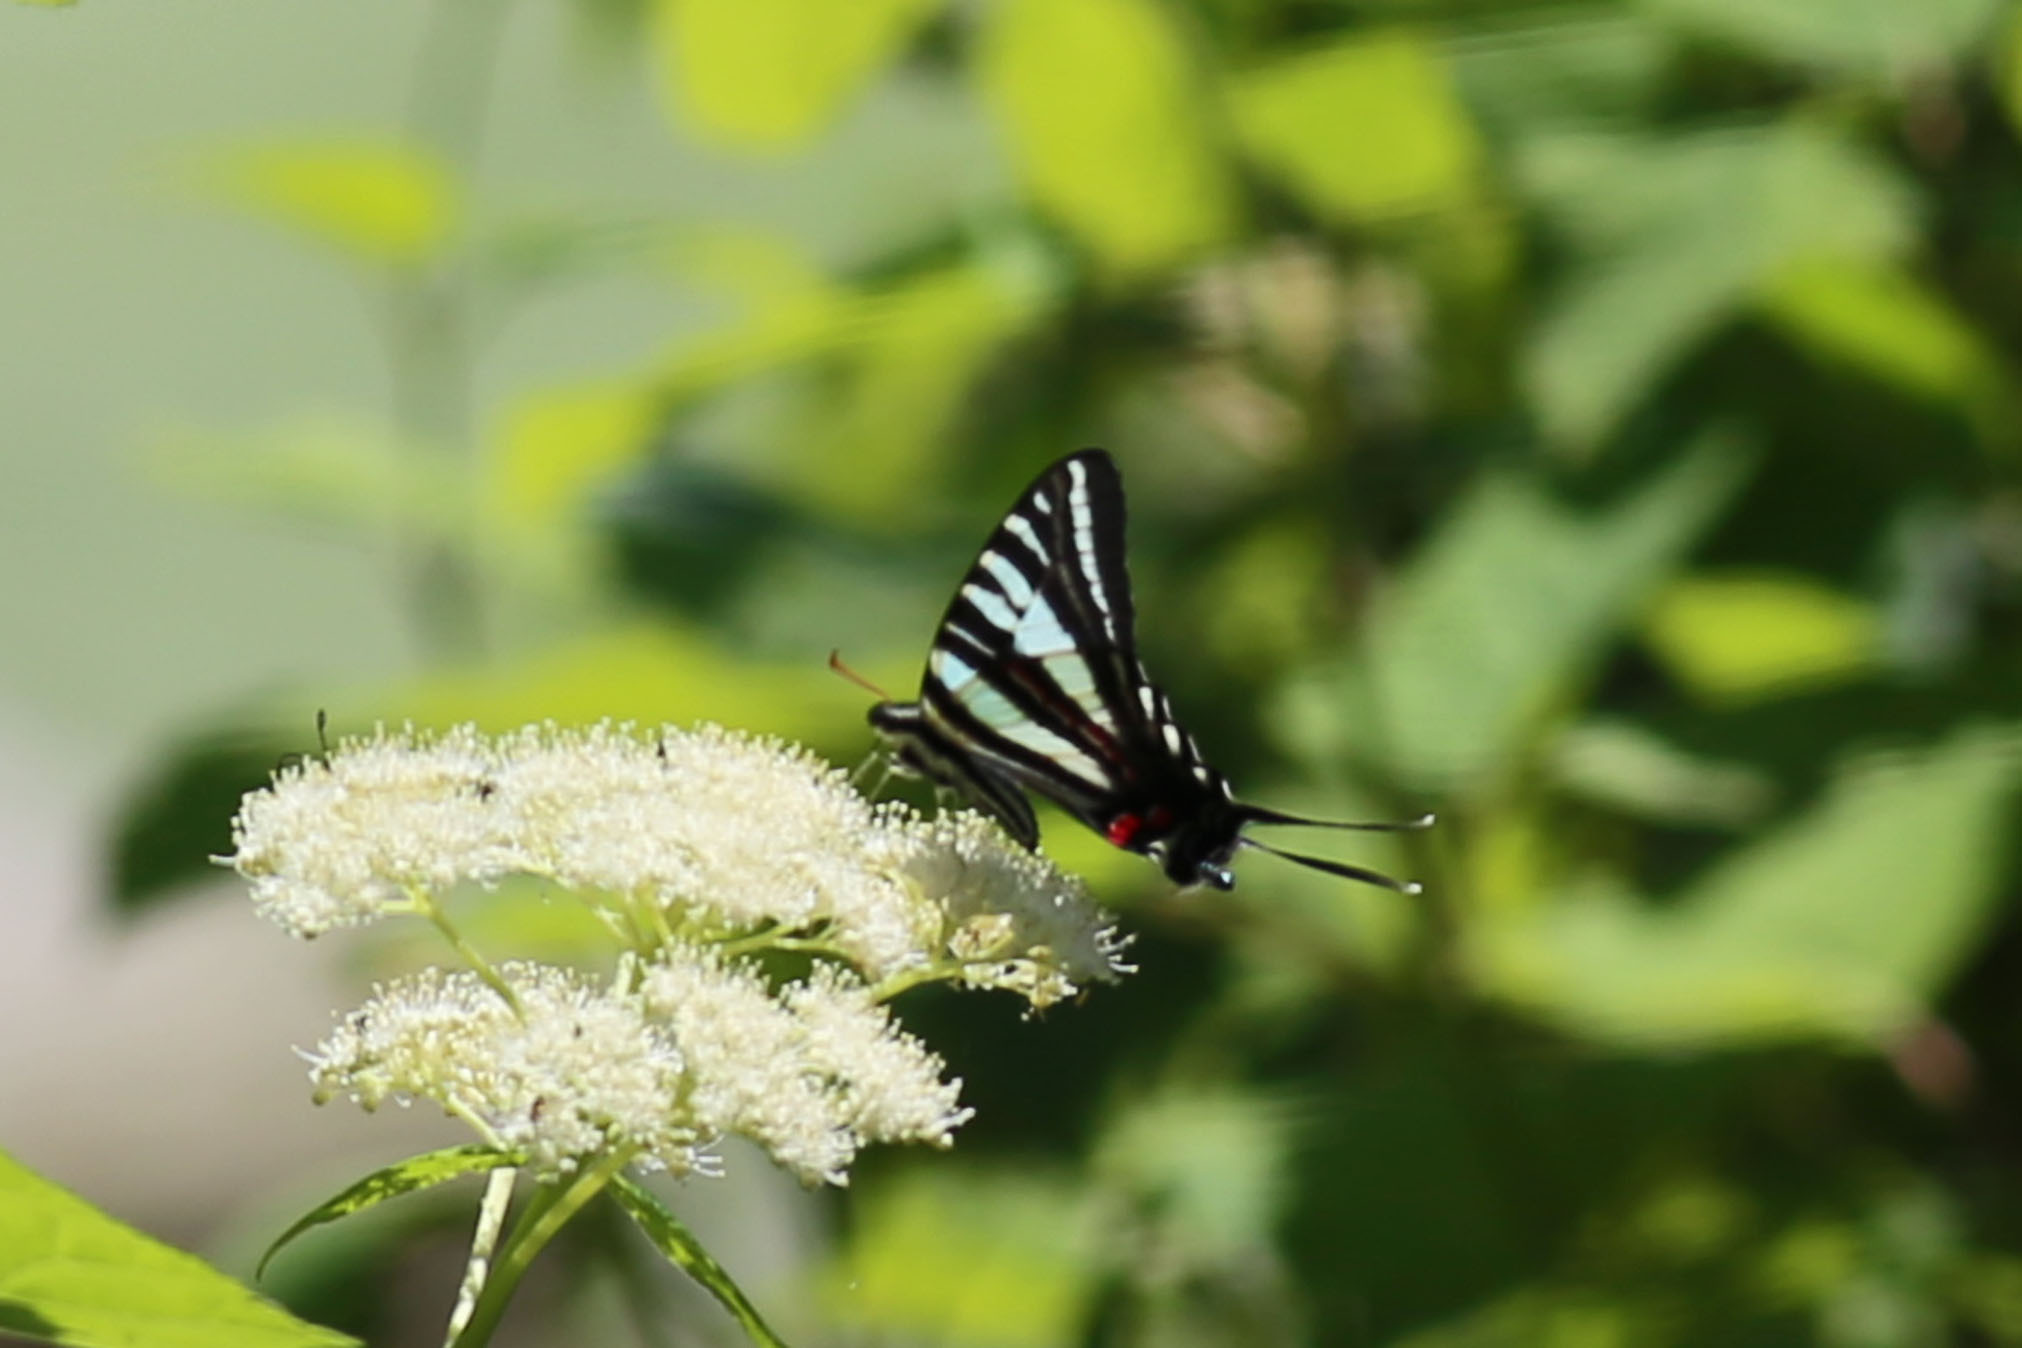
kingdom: Animalia
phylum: Arthropoda
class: Insecta
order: Lepidoptera
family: Papilionidae
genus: Protographium
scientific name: Protographium marcellus
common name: Zebra swallowtail
